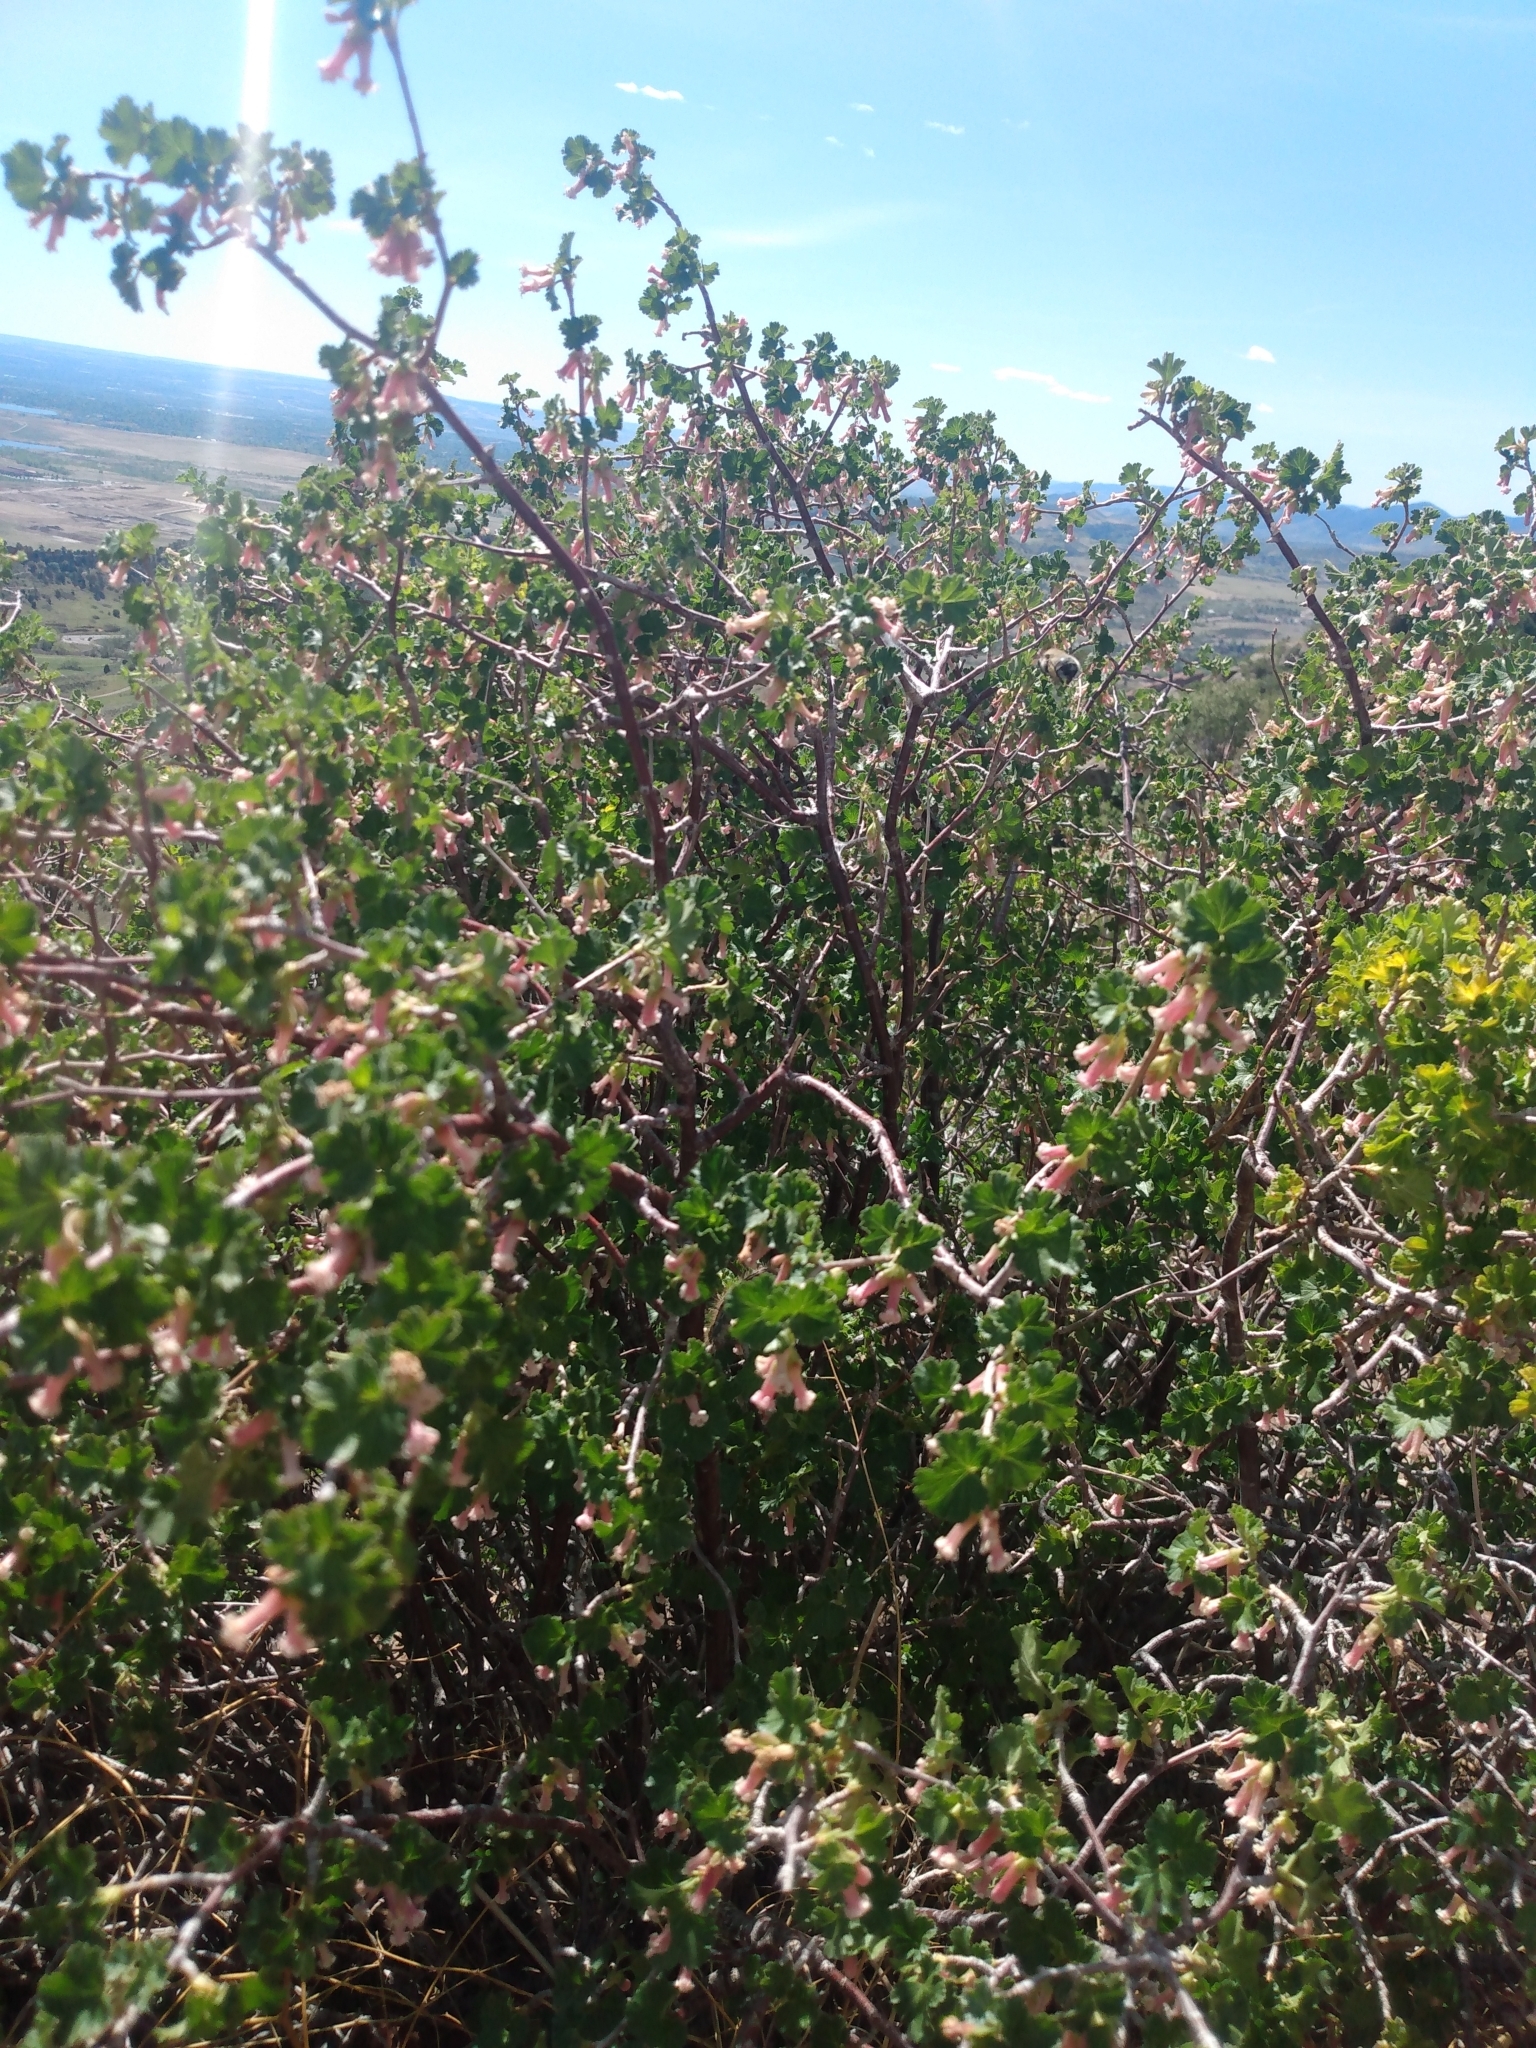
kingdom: Plantae
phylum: Tracheophyta
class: Magnoliopsida
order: Saxifragales
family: Grossulariaceae
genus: Ribes
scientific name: Ribes cereum
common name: Wax currant
